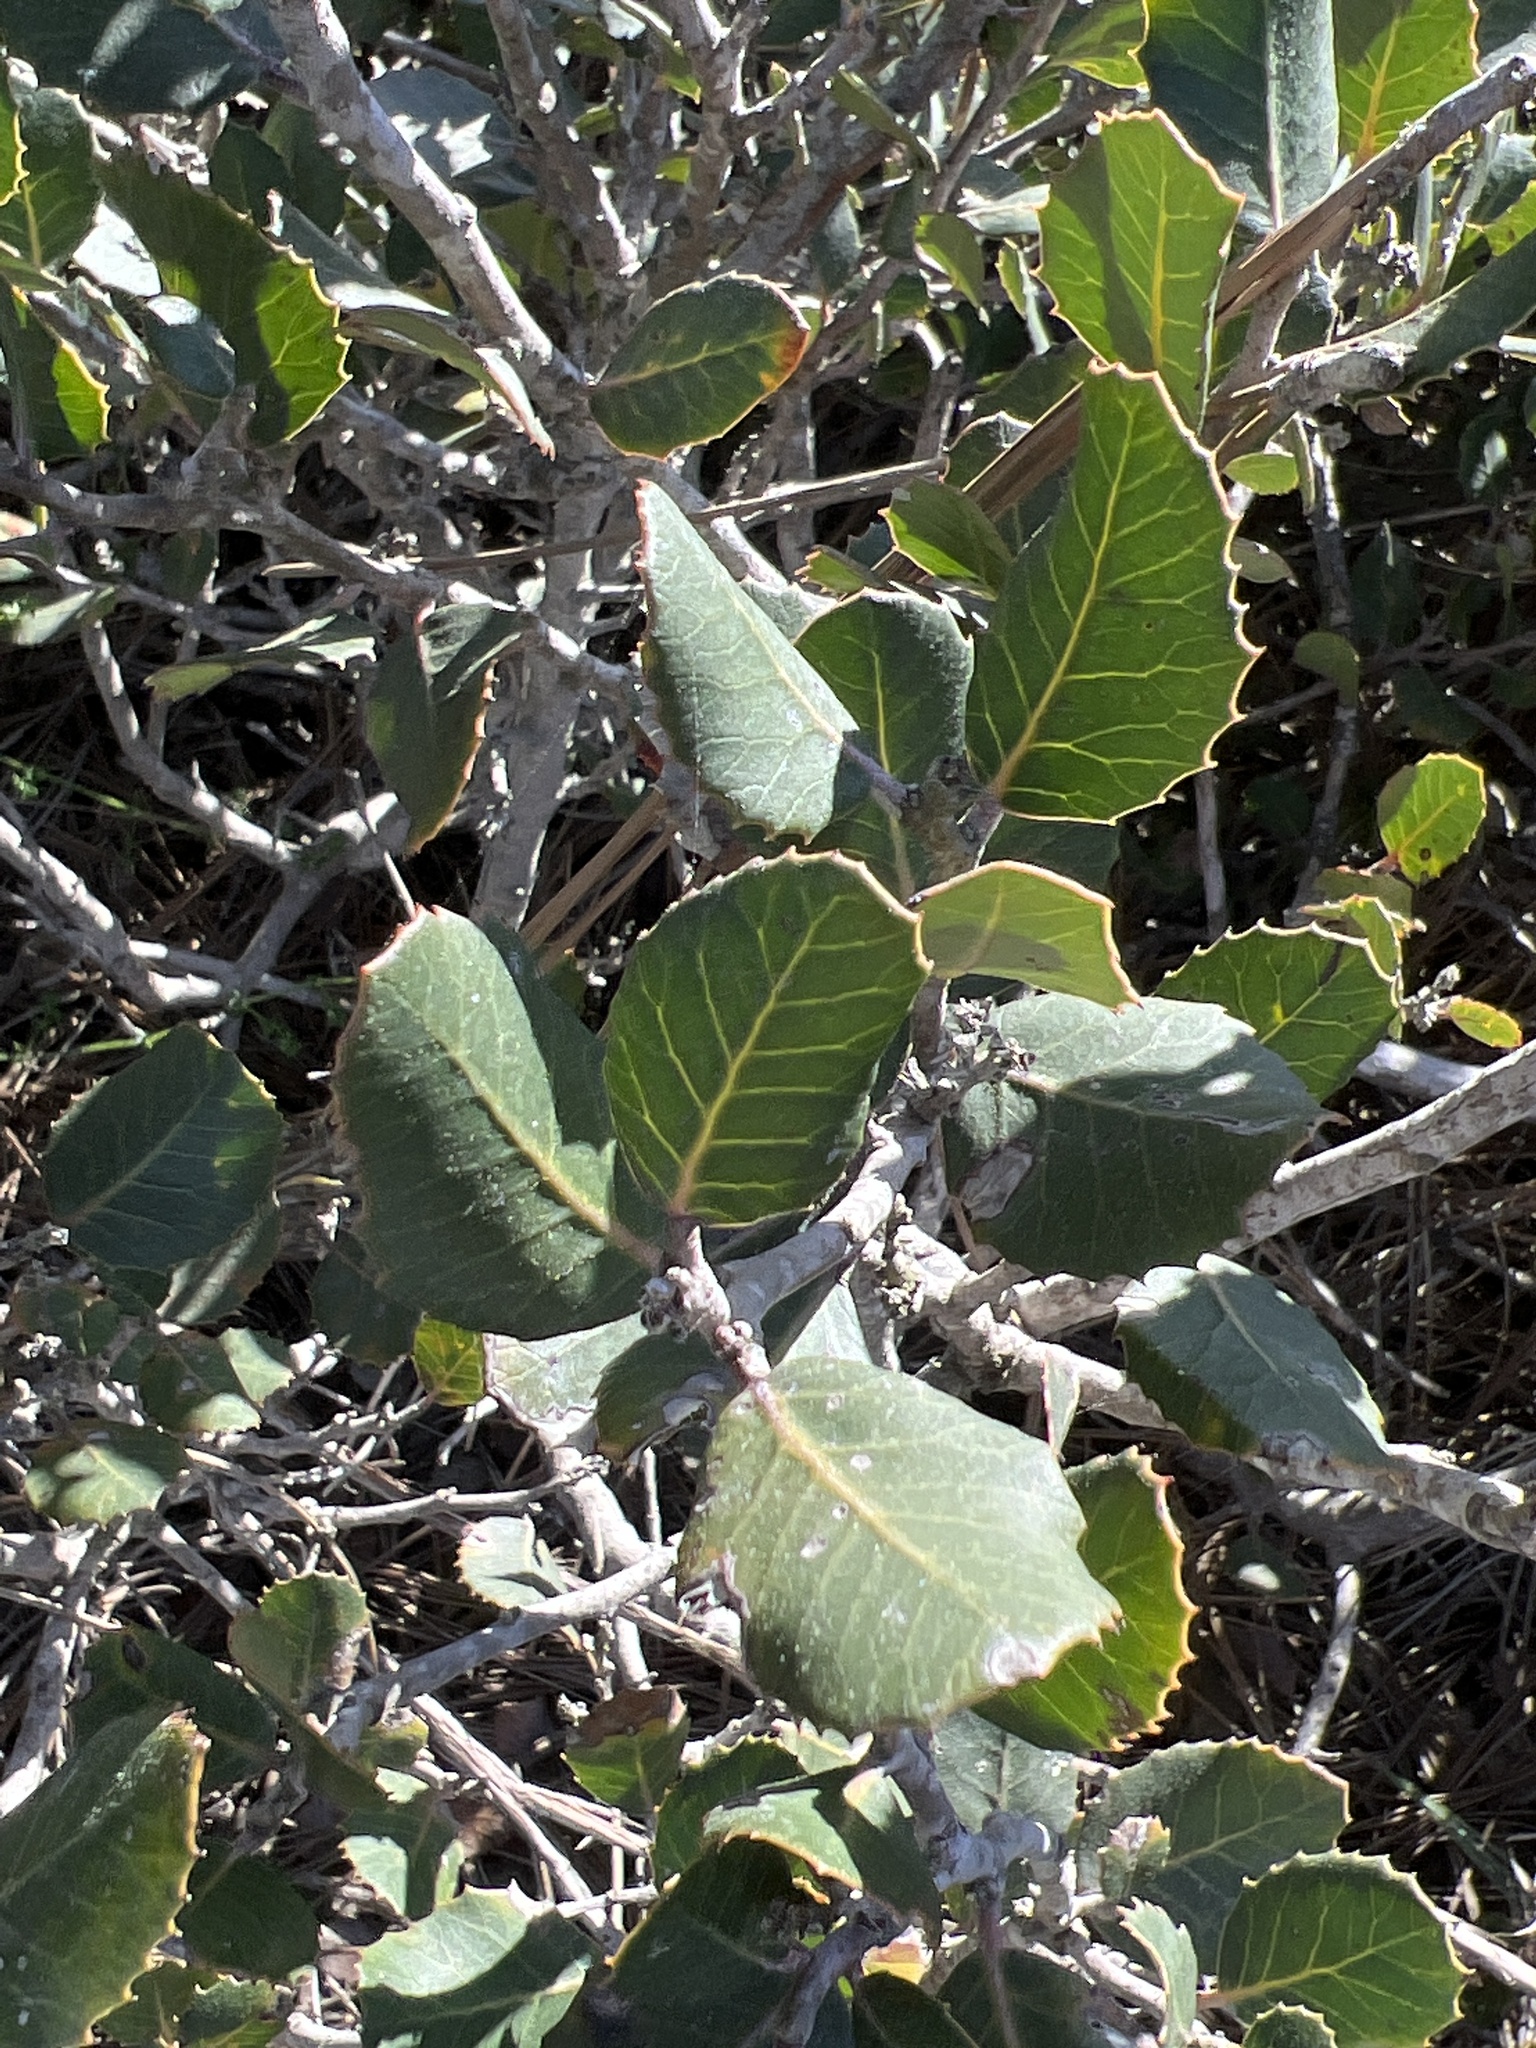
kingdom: Plantae
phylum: Tracheophyta
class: Magnoliopsida
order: Sapindales
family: Anacardiaceae
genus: Rhus
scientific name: Rhus integrifolia
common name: Lemonade sumac
